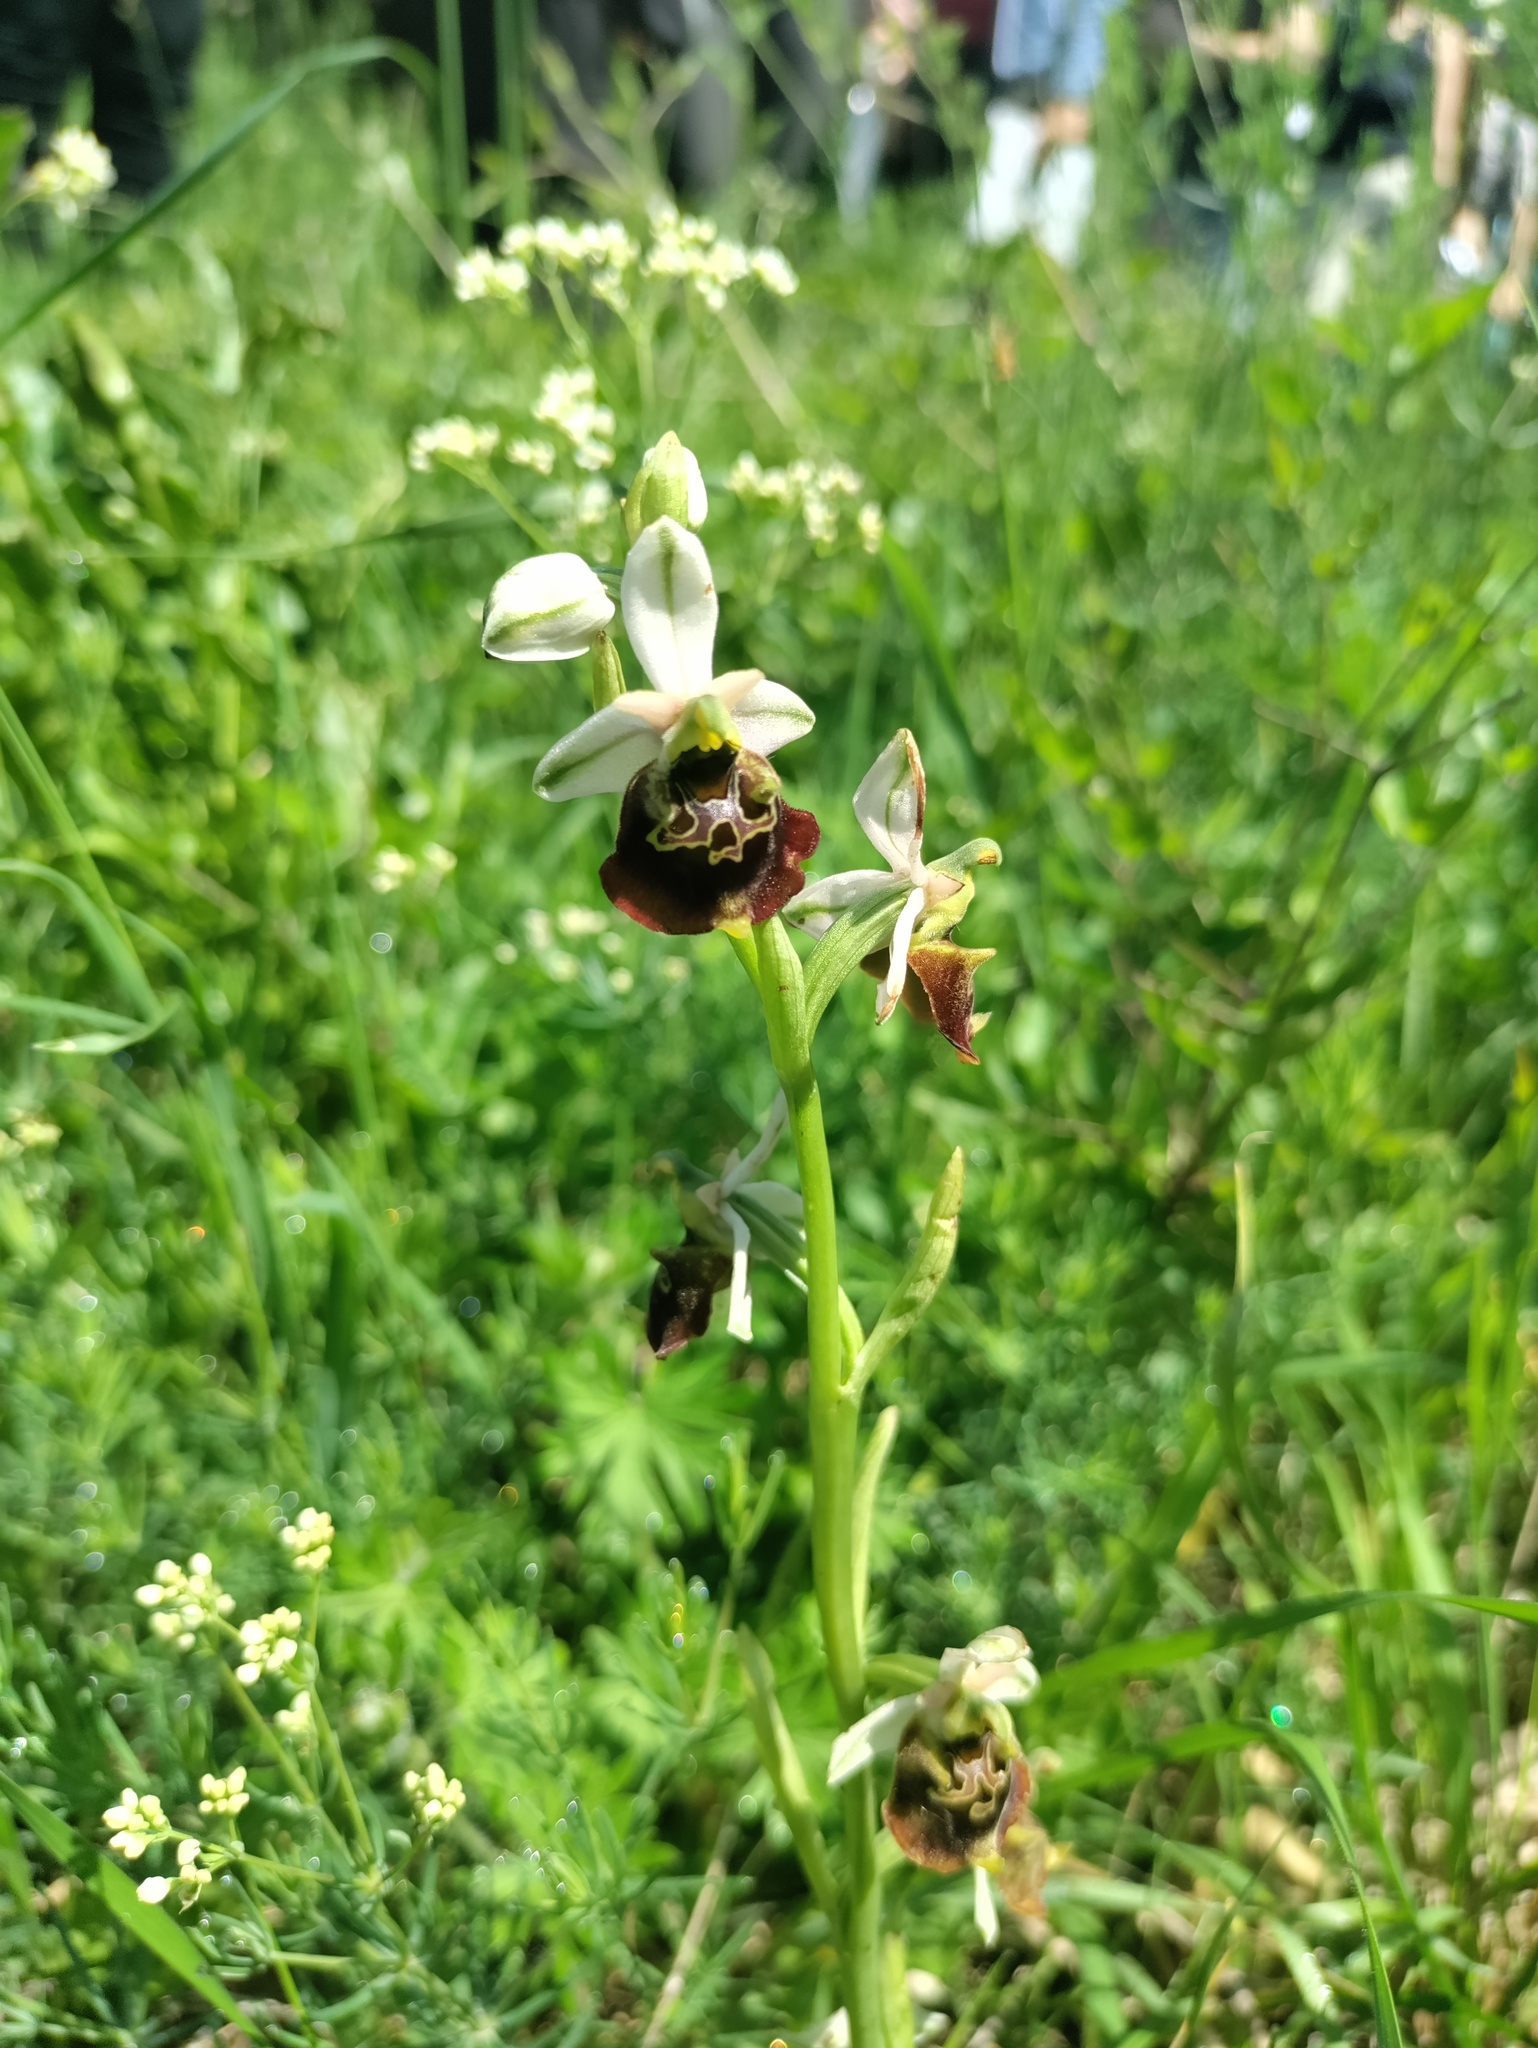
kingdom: Plantae
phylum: Tracheophyta
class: Liliopsida
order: Asparagales
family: Orchidaceae
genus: Ophrys
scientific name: Ophrys holosericea
